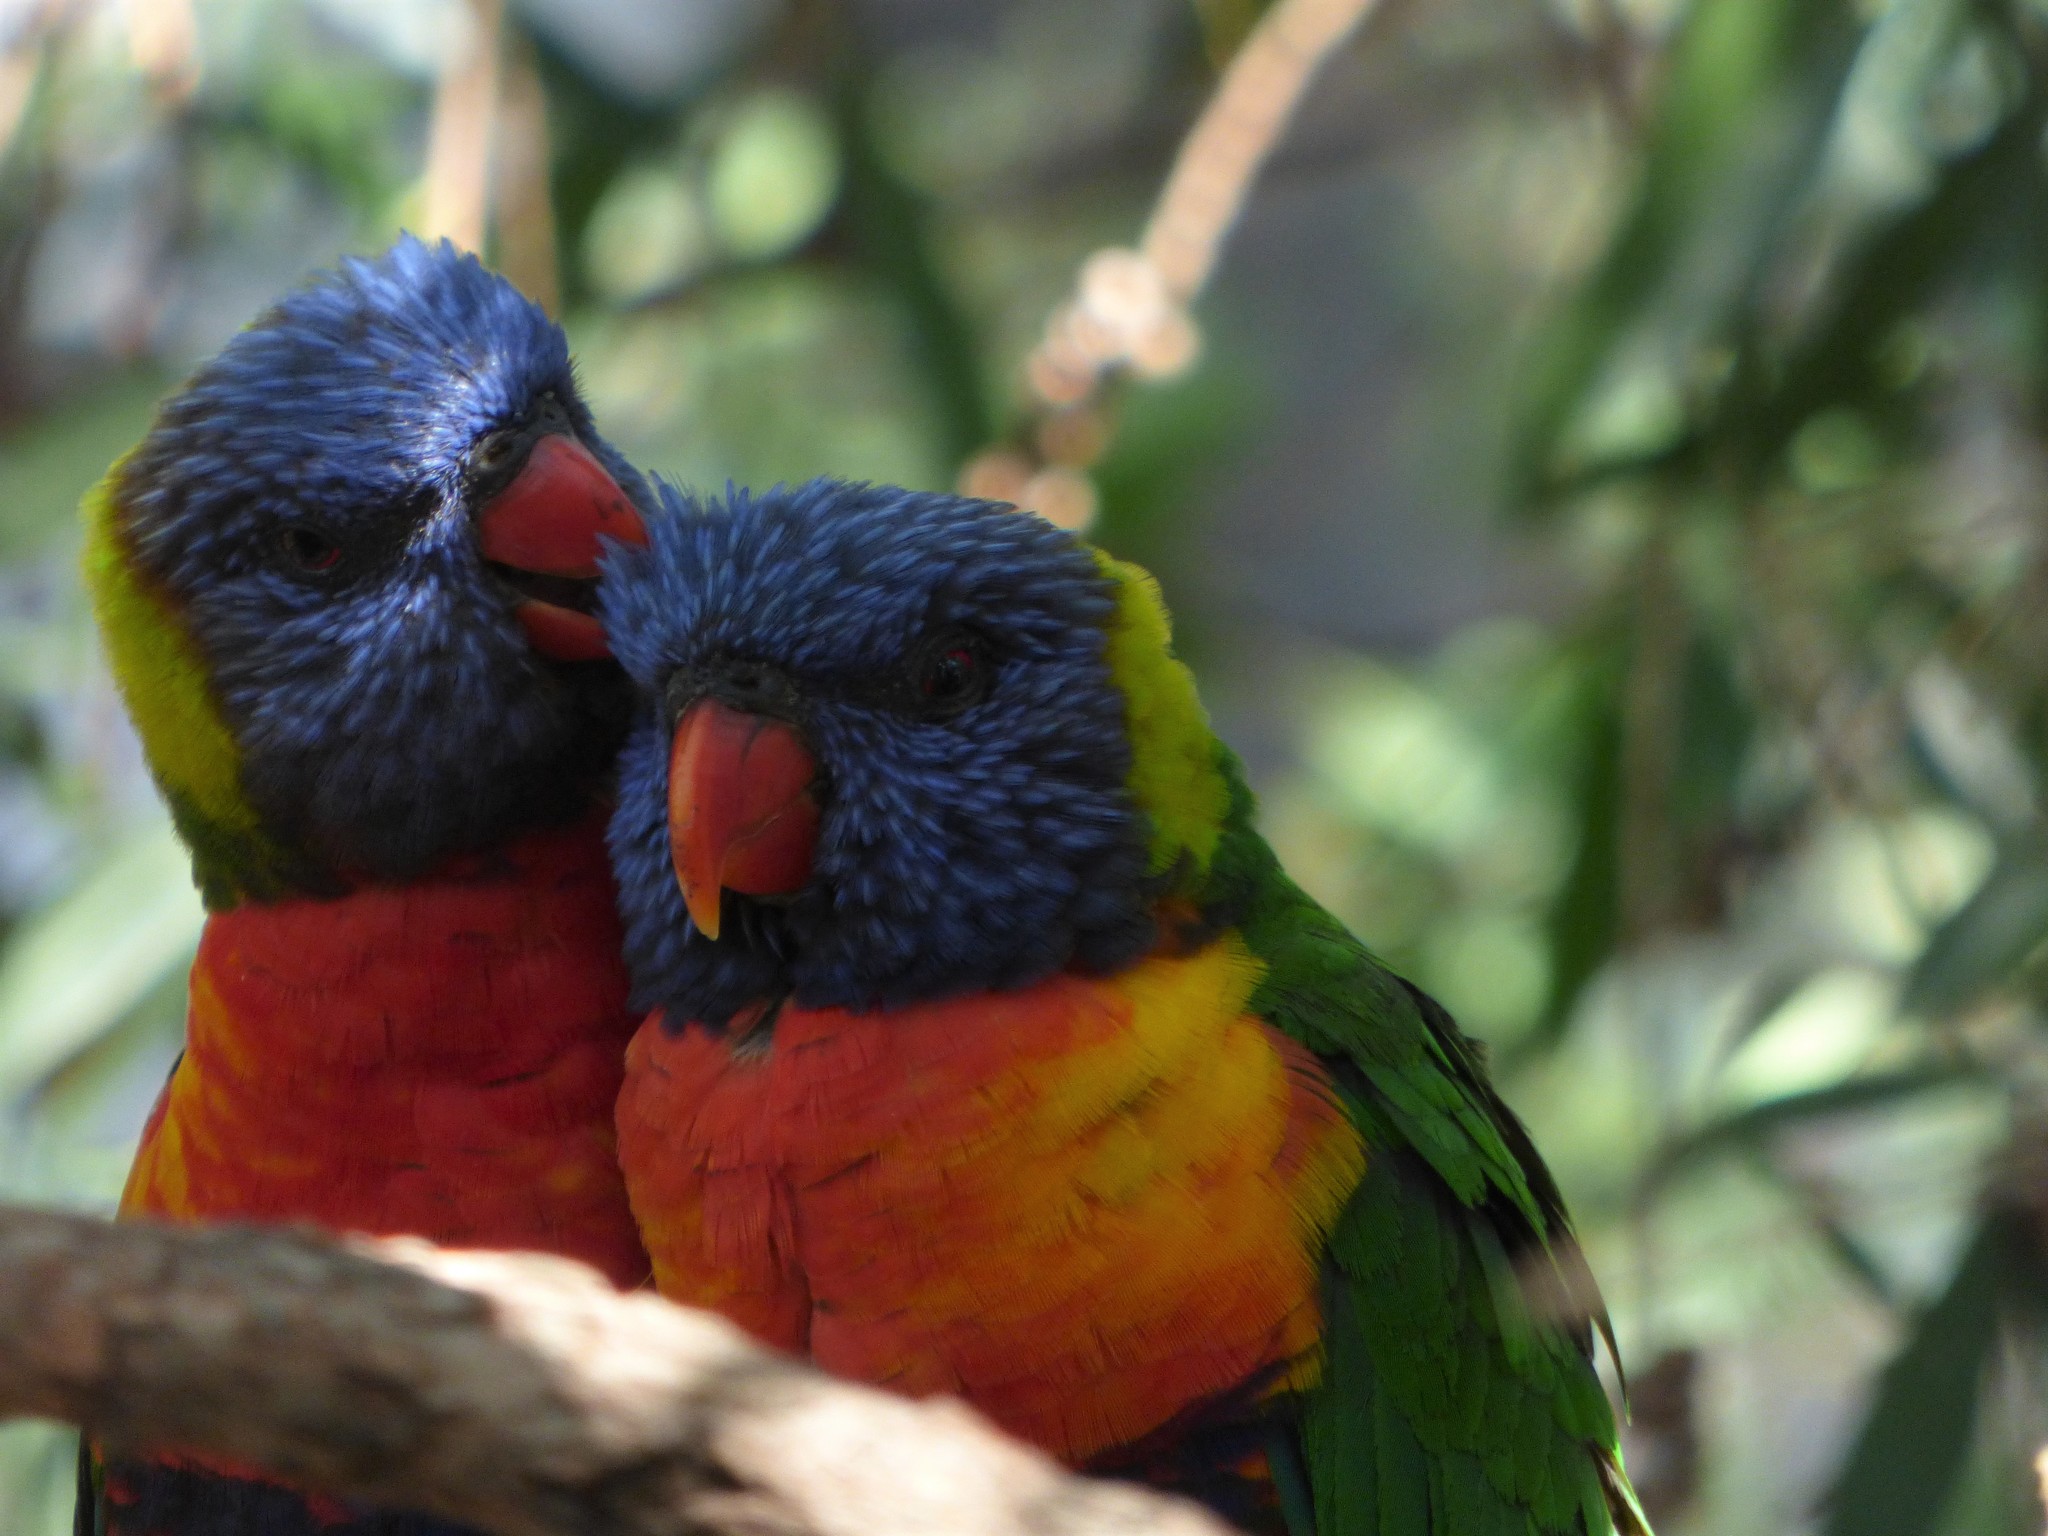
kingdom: Animalia
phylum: Chordata
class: Aves
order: Psittaciformes
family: Psittacidae
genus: Trichoglossus
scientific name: Trichoglossus haematodus
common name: Coconut lorikeet
